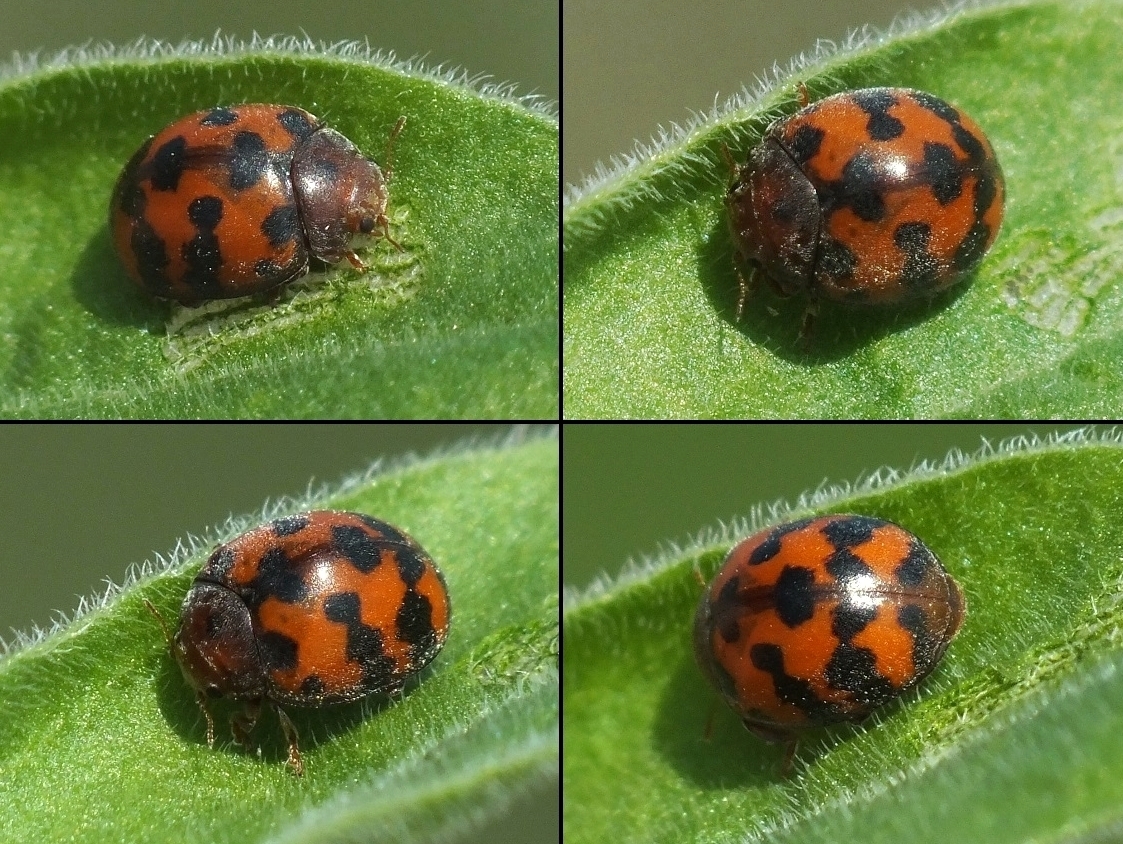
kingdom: Animalia
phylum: Arthropoda
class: Insecta
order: Coleoptera
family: Coccinellidae
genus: Subcoccinella
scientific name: Subcoccinella vigintiquatuorpunctata
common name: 24-spot ladybird
